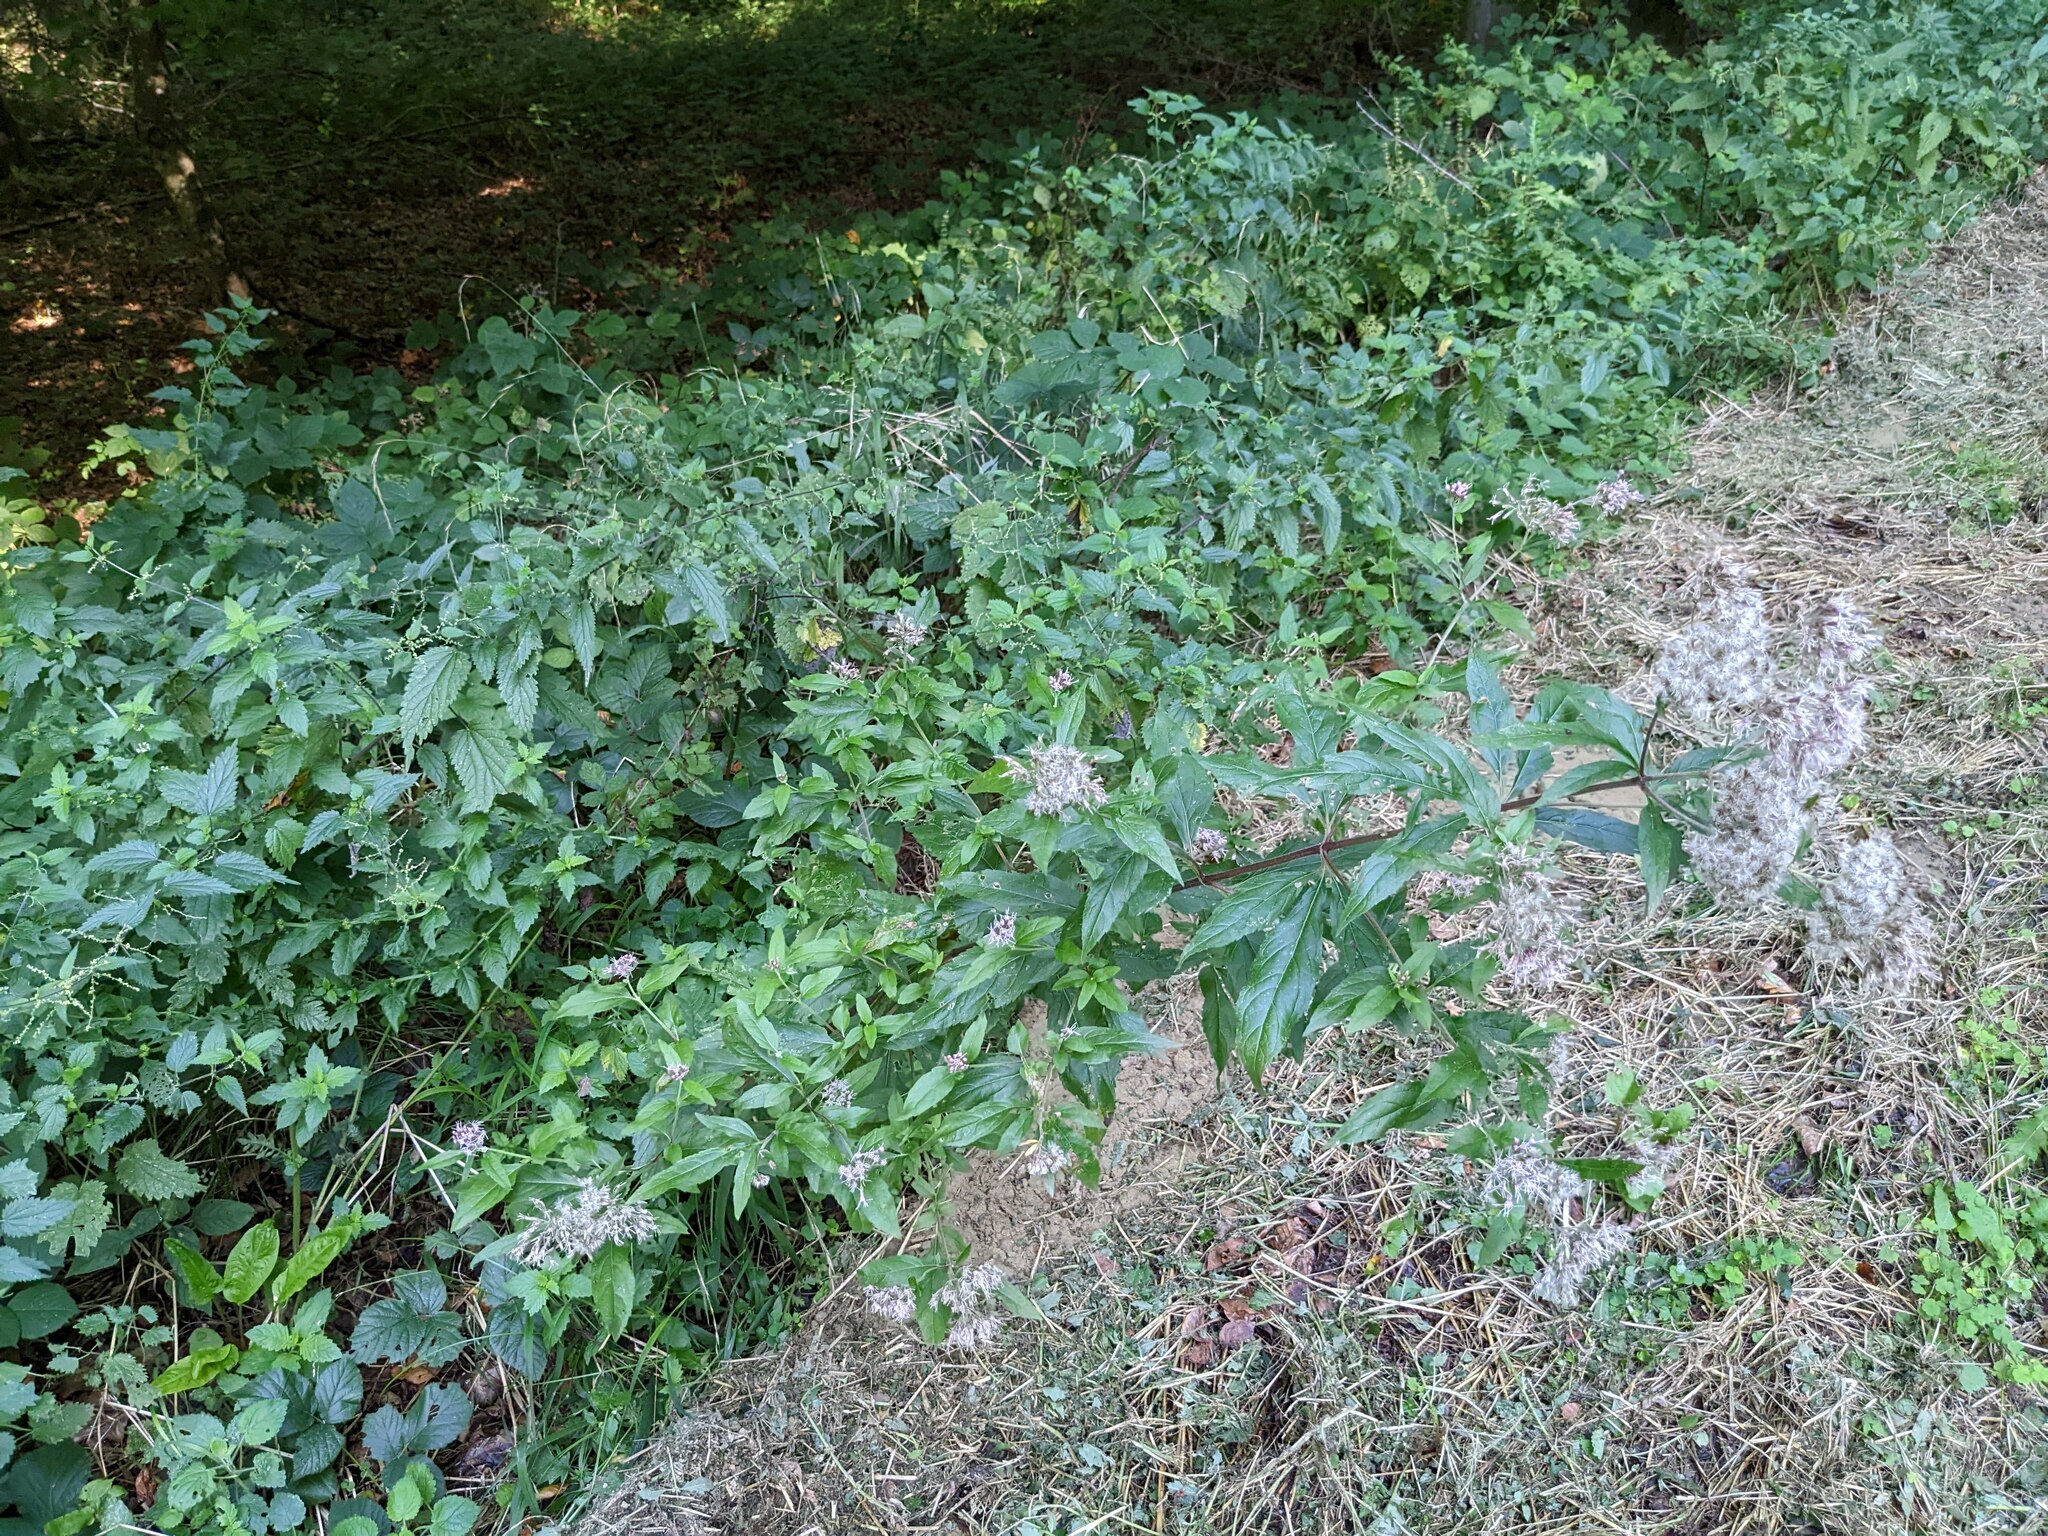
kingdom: Plantae
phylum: Tracheophyta
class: Magnoliopsida
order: Asterales
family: Asteraceae
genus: Eupatorium
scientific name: Eupatorium cannabinum
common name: Hemp-agrimony
